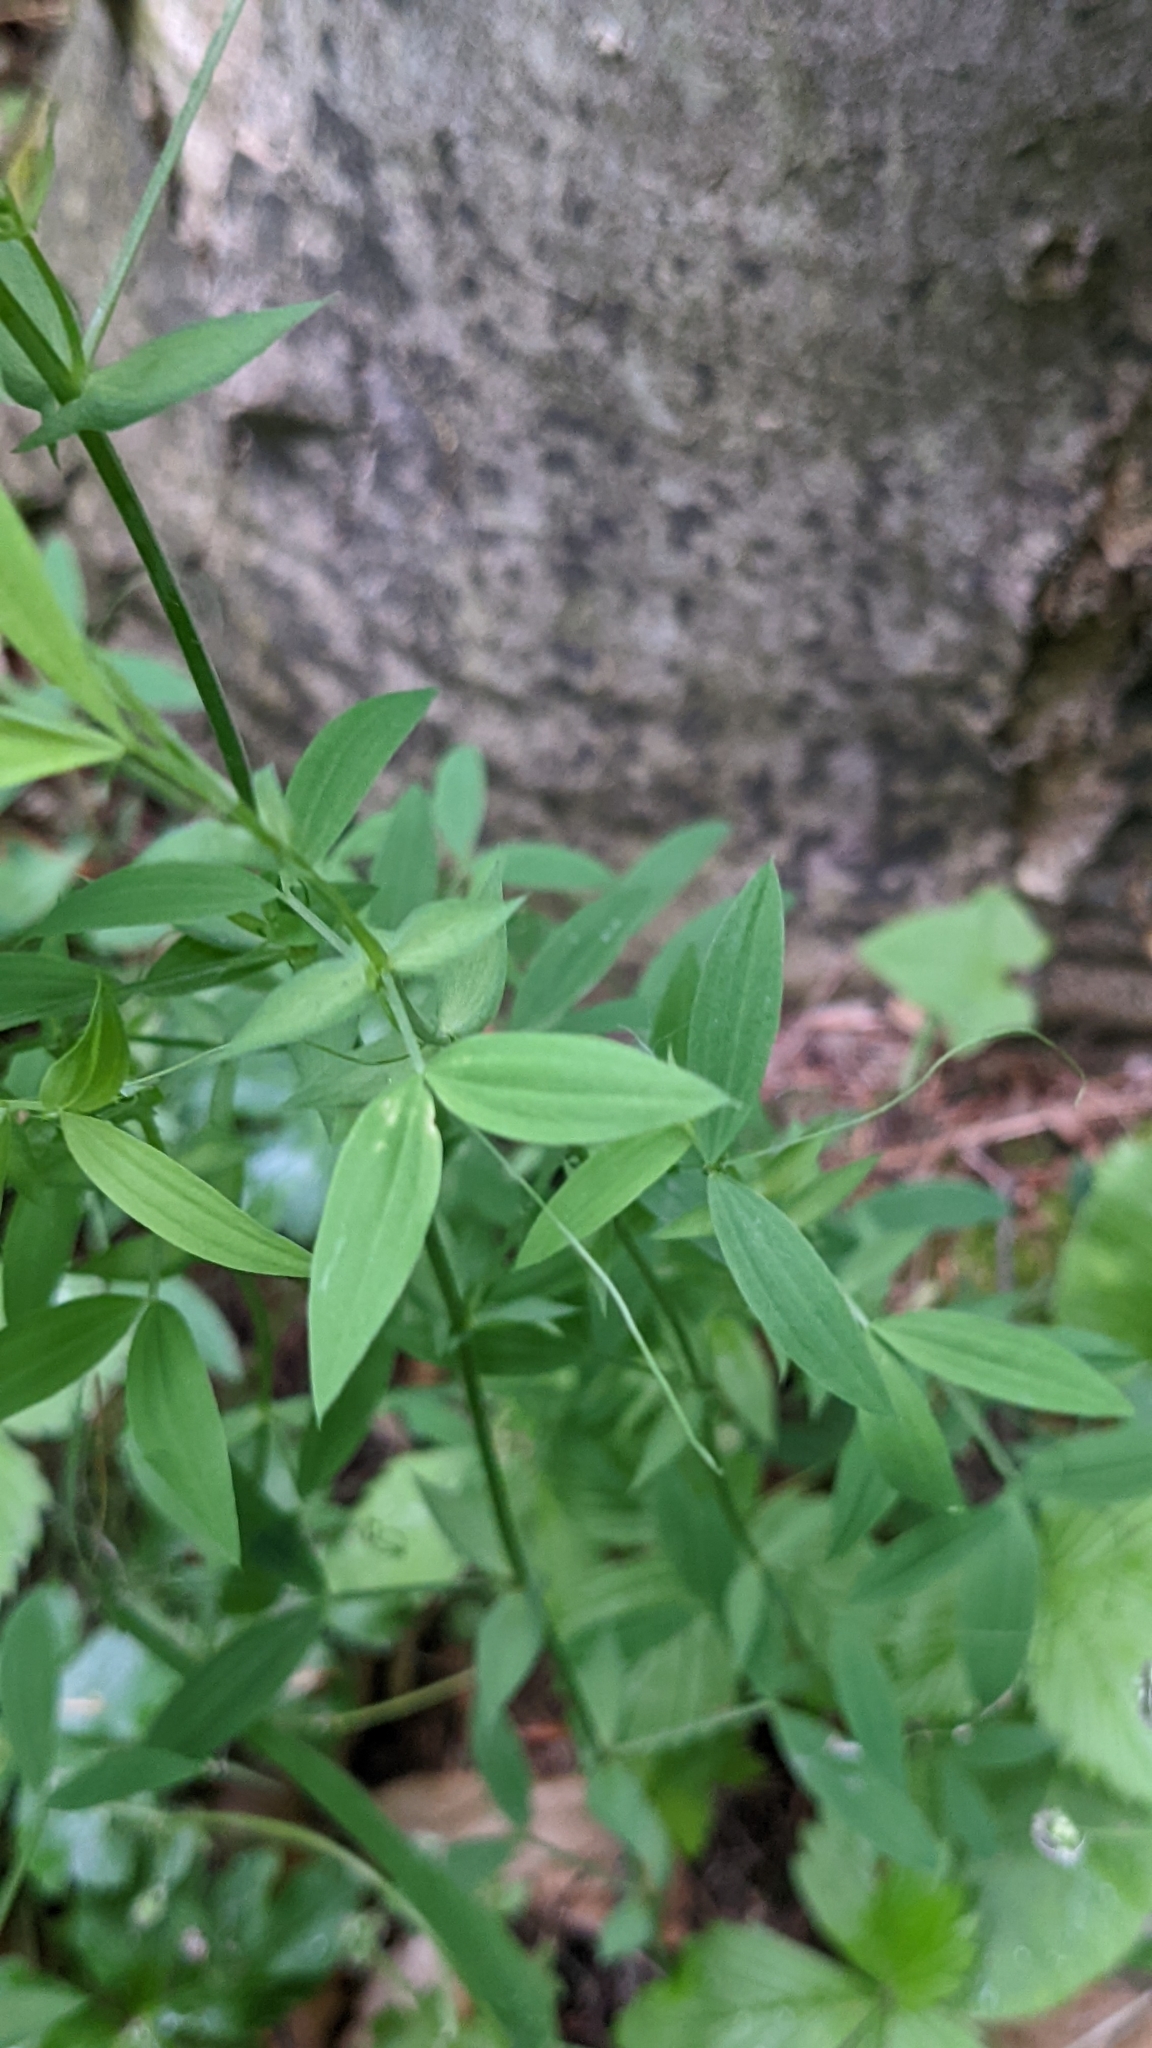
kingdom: Plantae
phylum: Tracheophyta
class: Magnoliopsida
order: Fabales
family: Fabaceae
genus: Lathyrus
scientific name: Lathyrus pratensis
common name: Meadow vetchling
